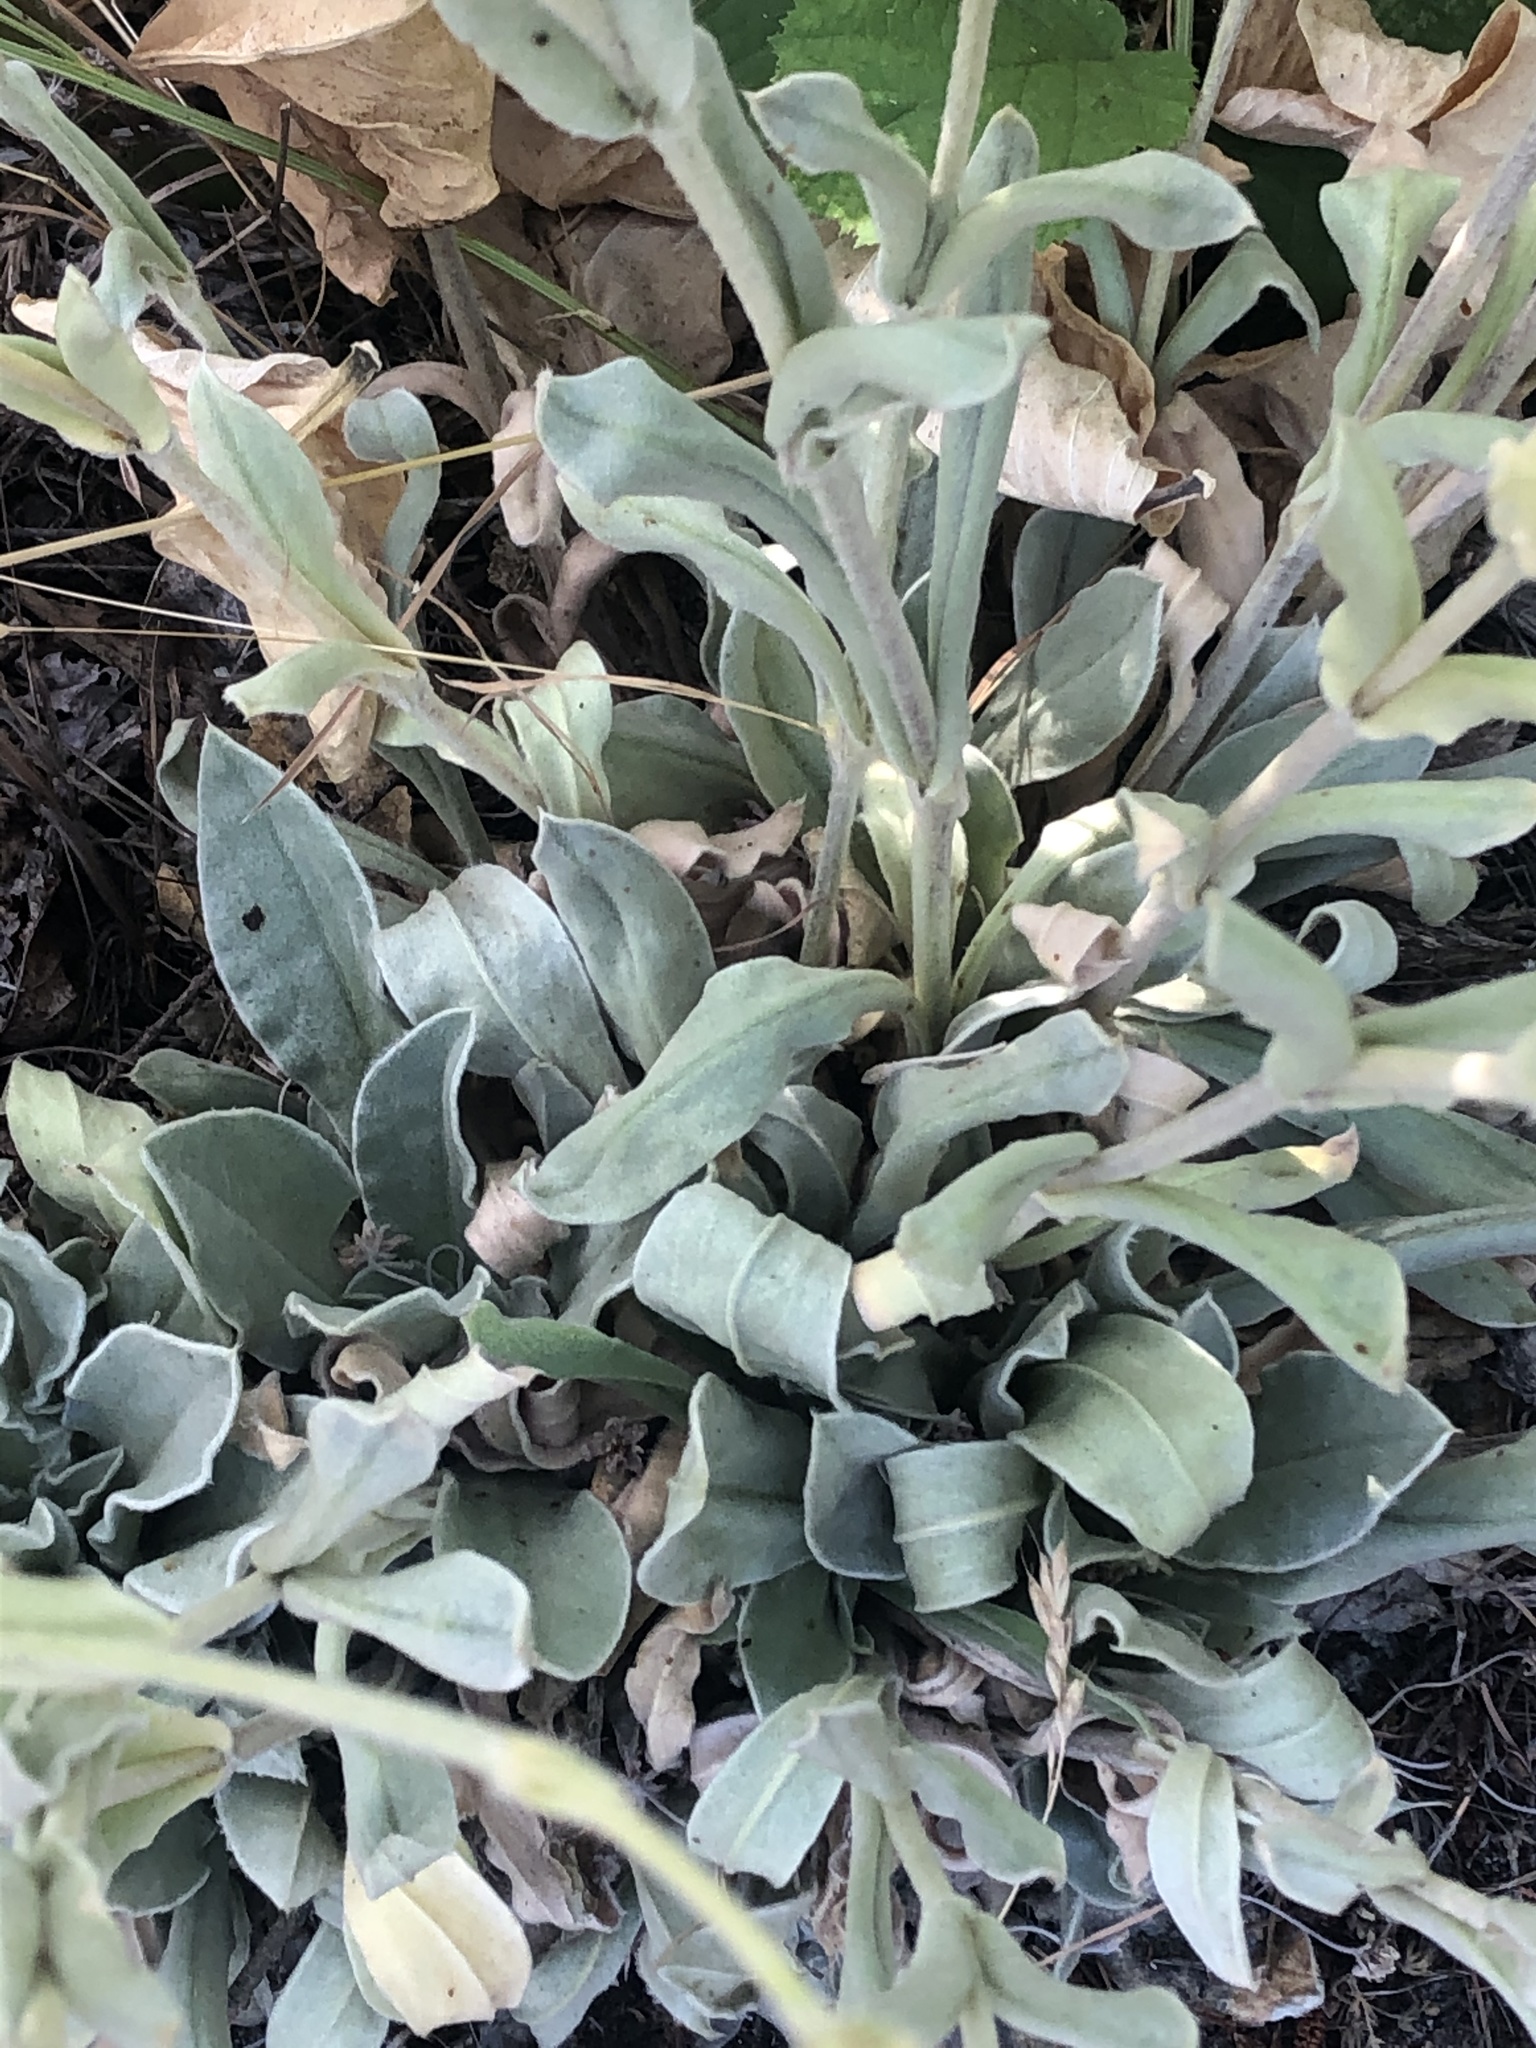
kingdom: Plantae
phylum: Tracheophyta
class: Magnoliopsida
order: Caryophyllales
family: Caryophyllaceae
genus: Silene
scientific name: Silene coronaria
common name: Rose campion
